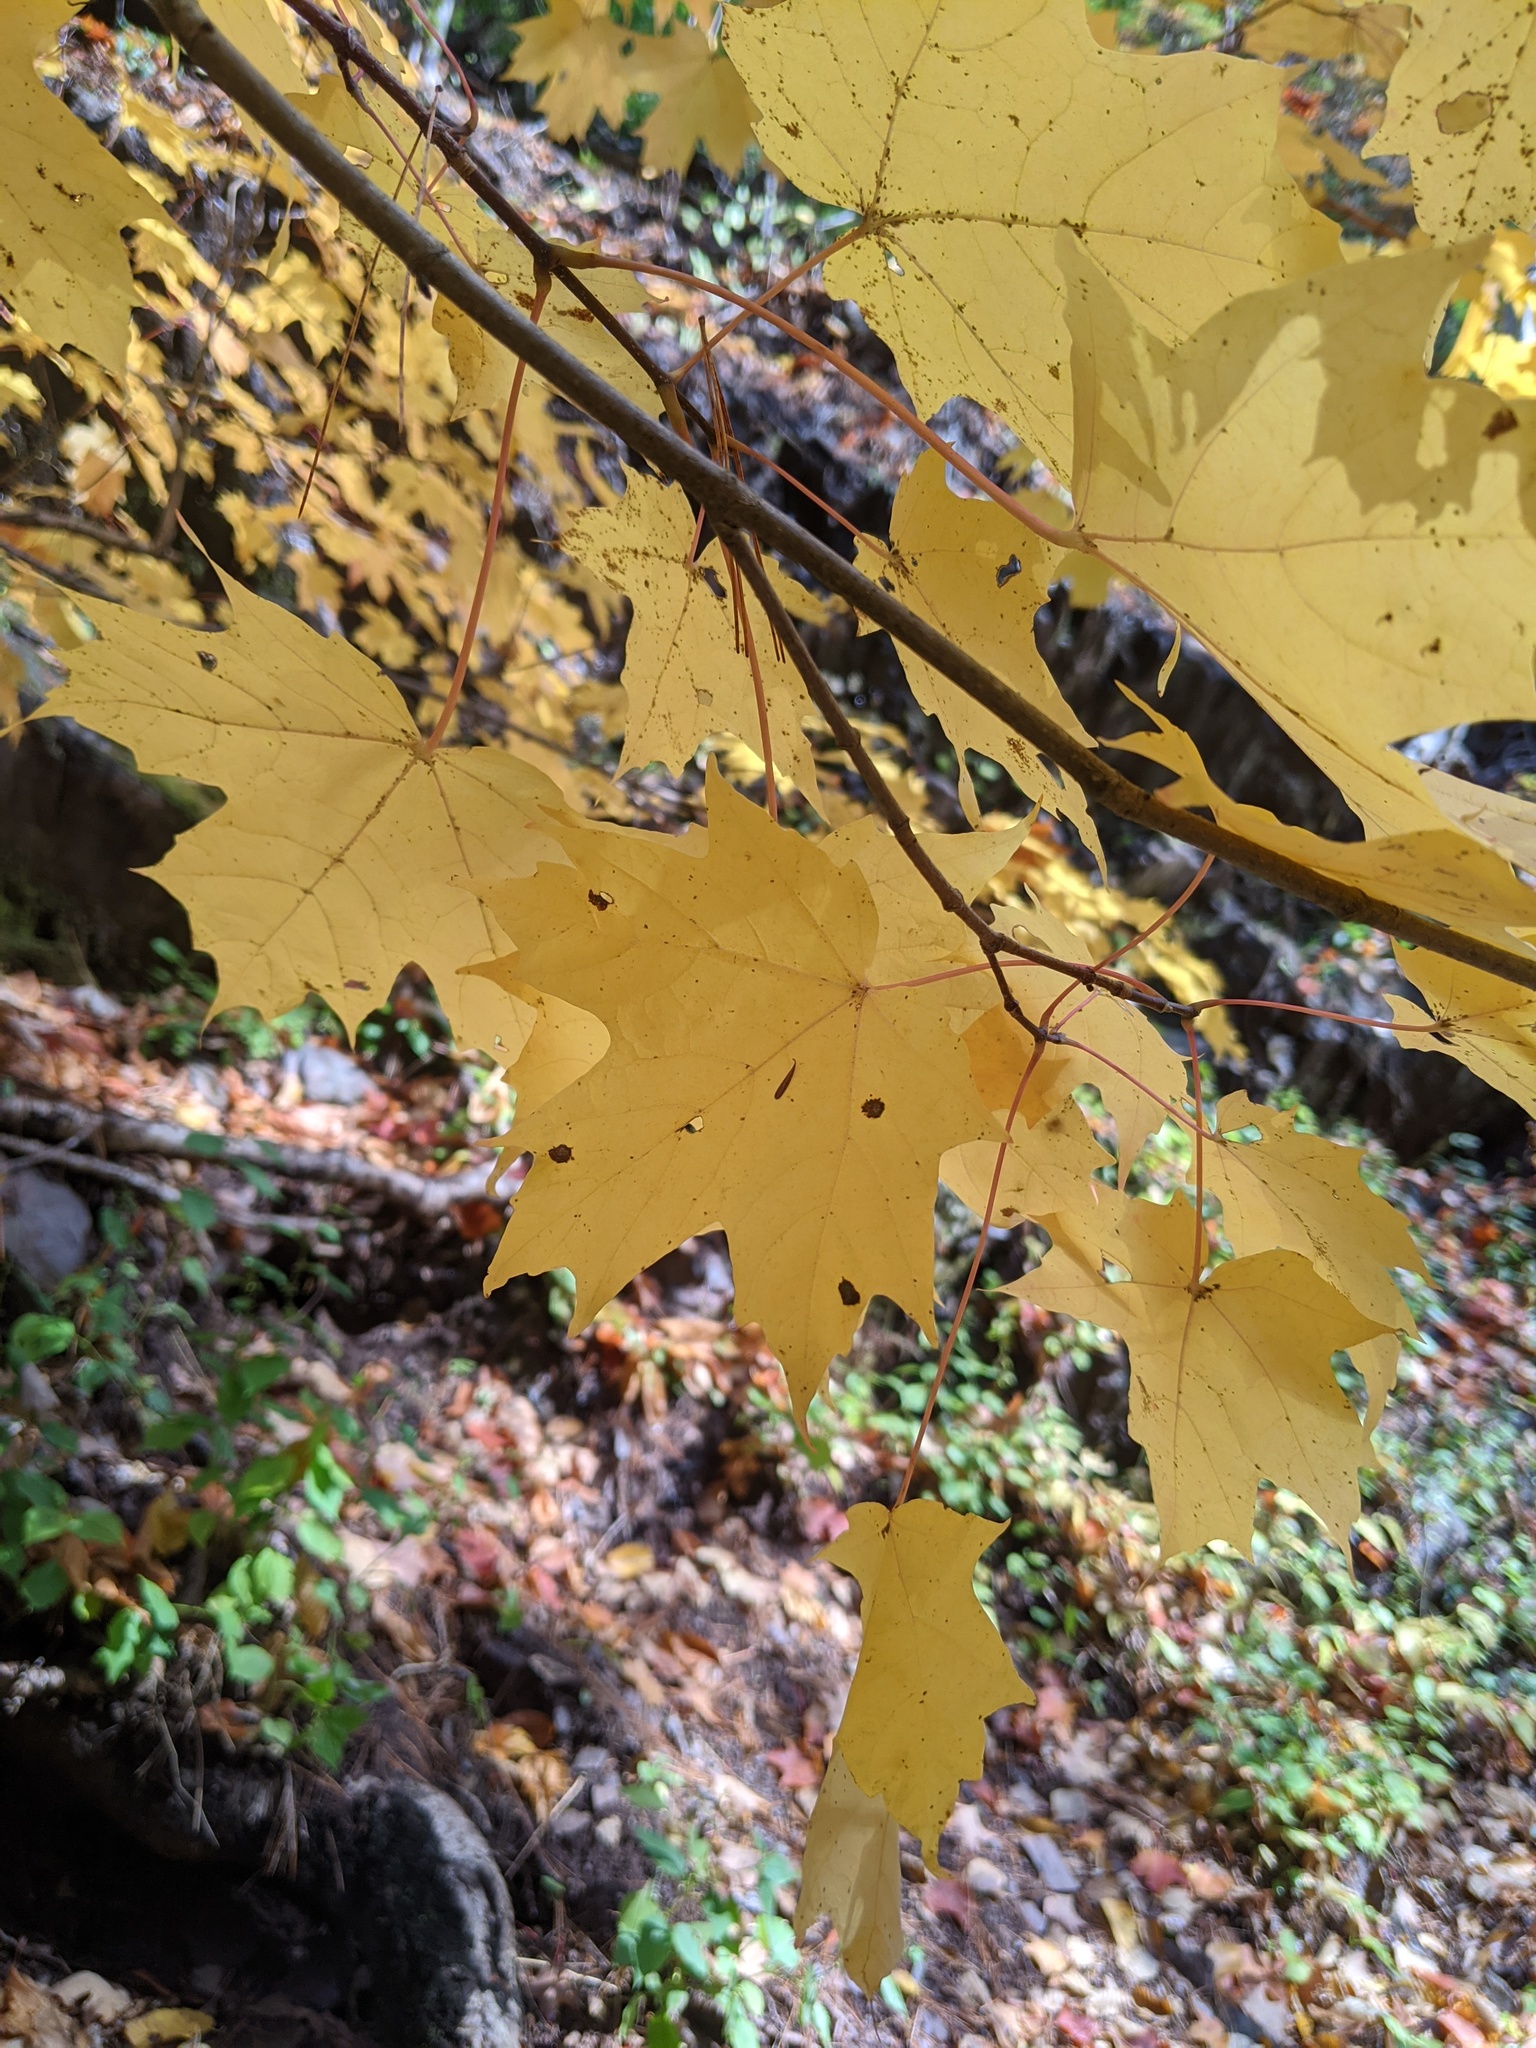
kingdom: Plantae
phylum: Tracheophyta
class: Magnoliopsida
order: Sapindales
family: Sapindaceae
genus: Acer
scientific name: Acer saccharum
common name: Sugar maple
